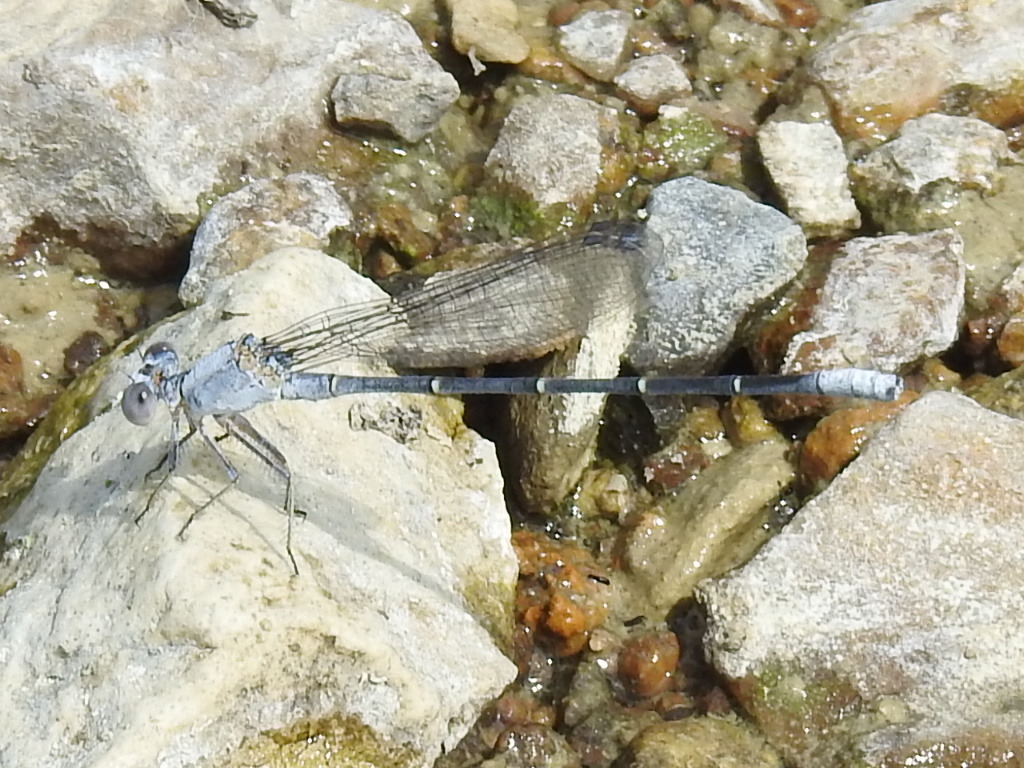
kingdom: Animalia
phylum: Arthropoda
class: Insecta
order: Odonata
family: Coenagrionidae
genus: Argia
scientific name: Argia moesta
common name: Powdered dancer
